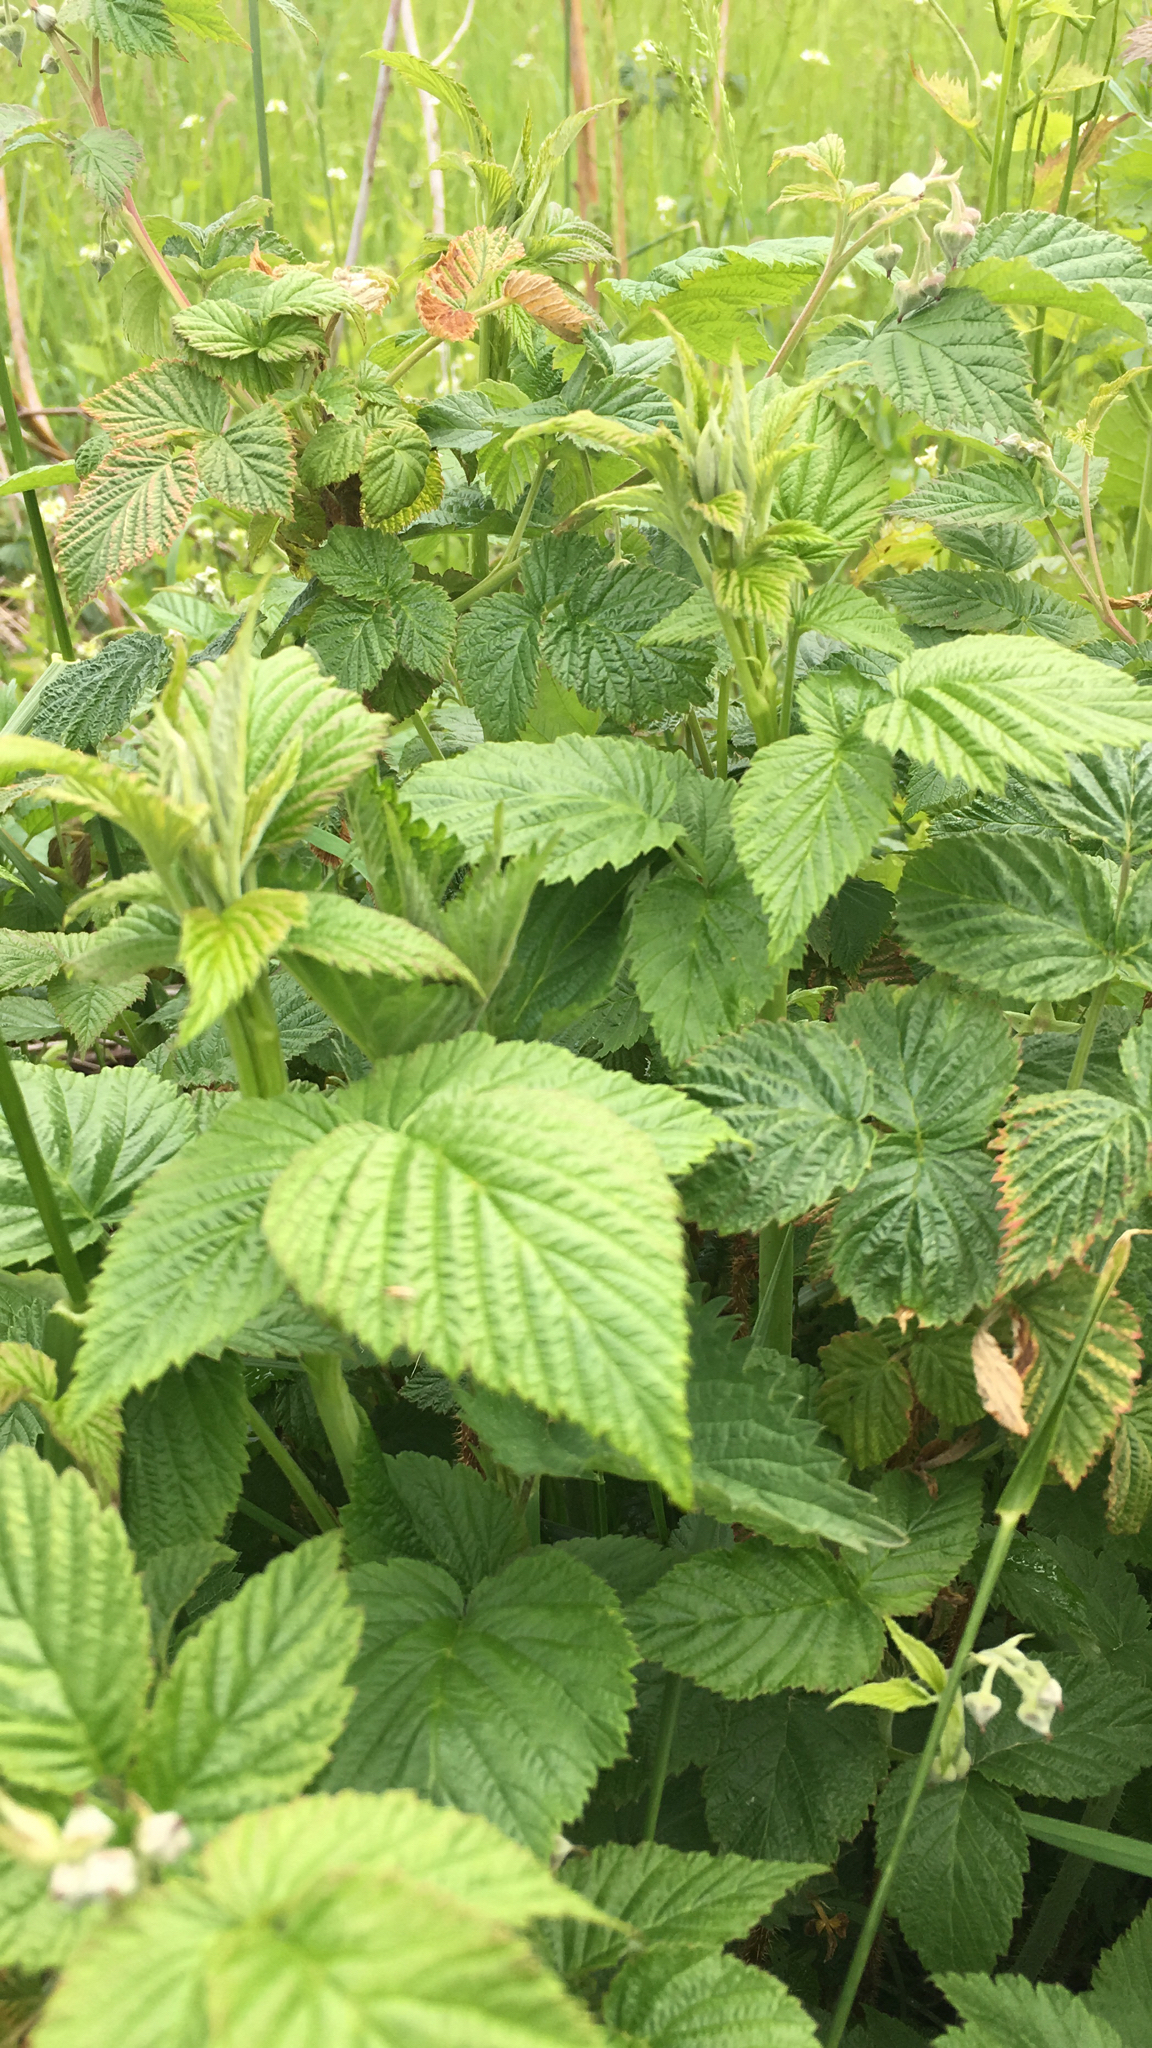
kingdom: Plantae
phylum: Tracheophyta
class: Magnoliopsida
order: Rosales
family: Rosaceae
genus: Rubus
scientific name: Rubus idaeus
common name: Raspberry
